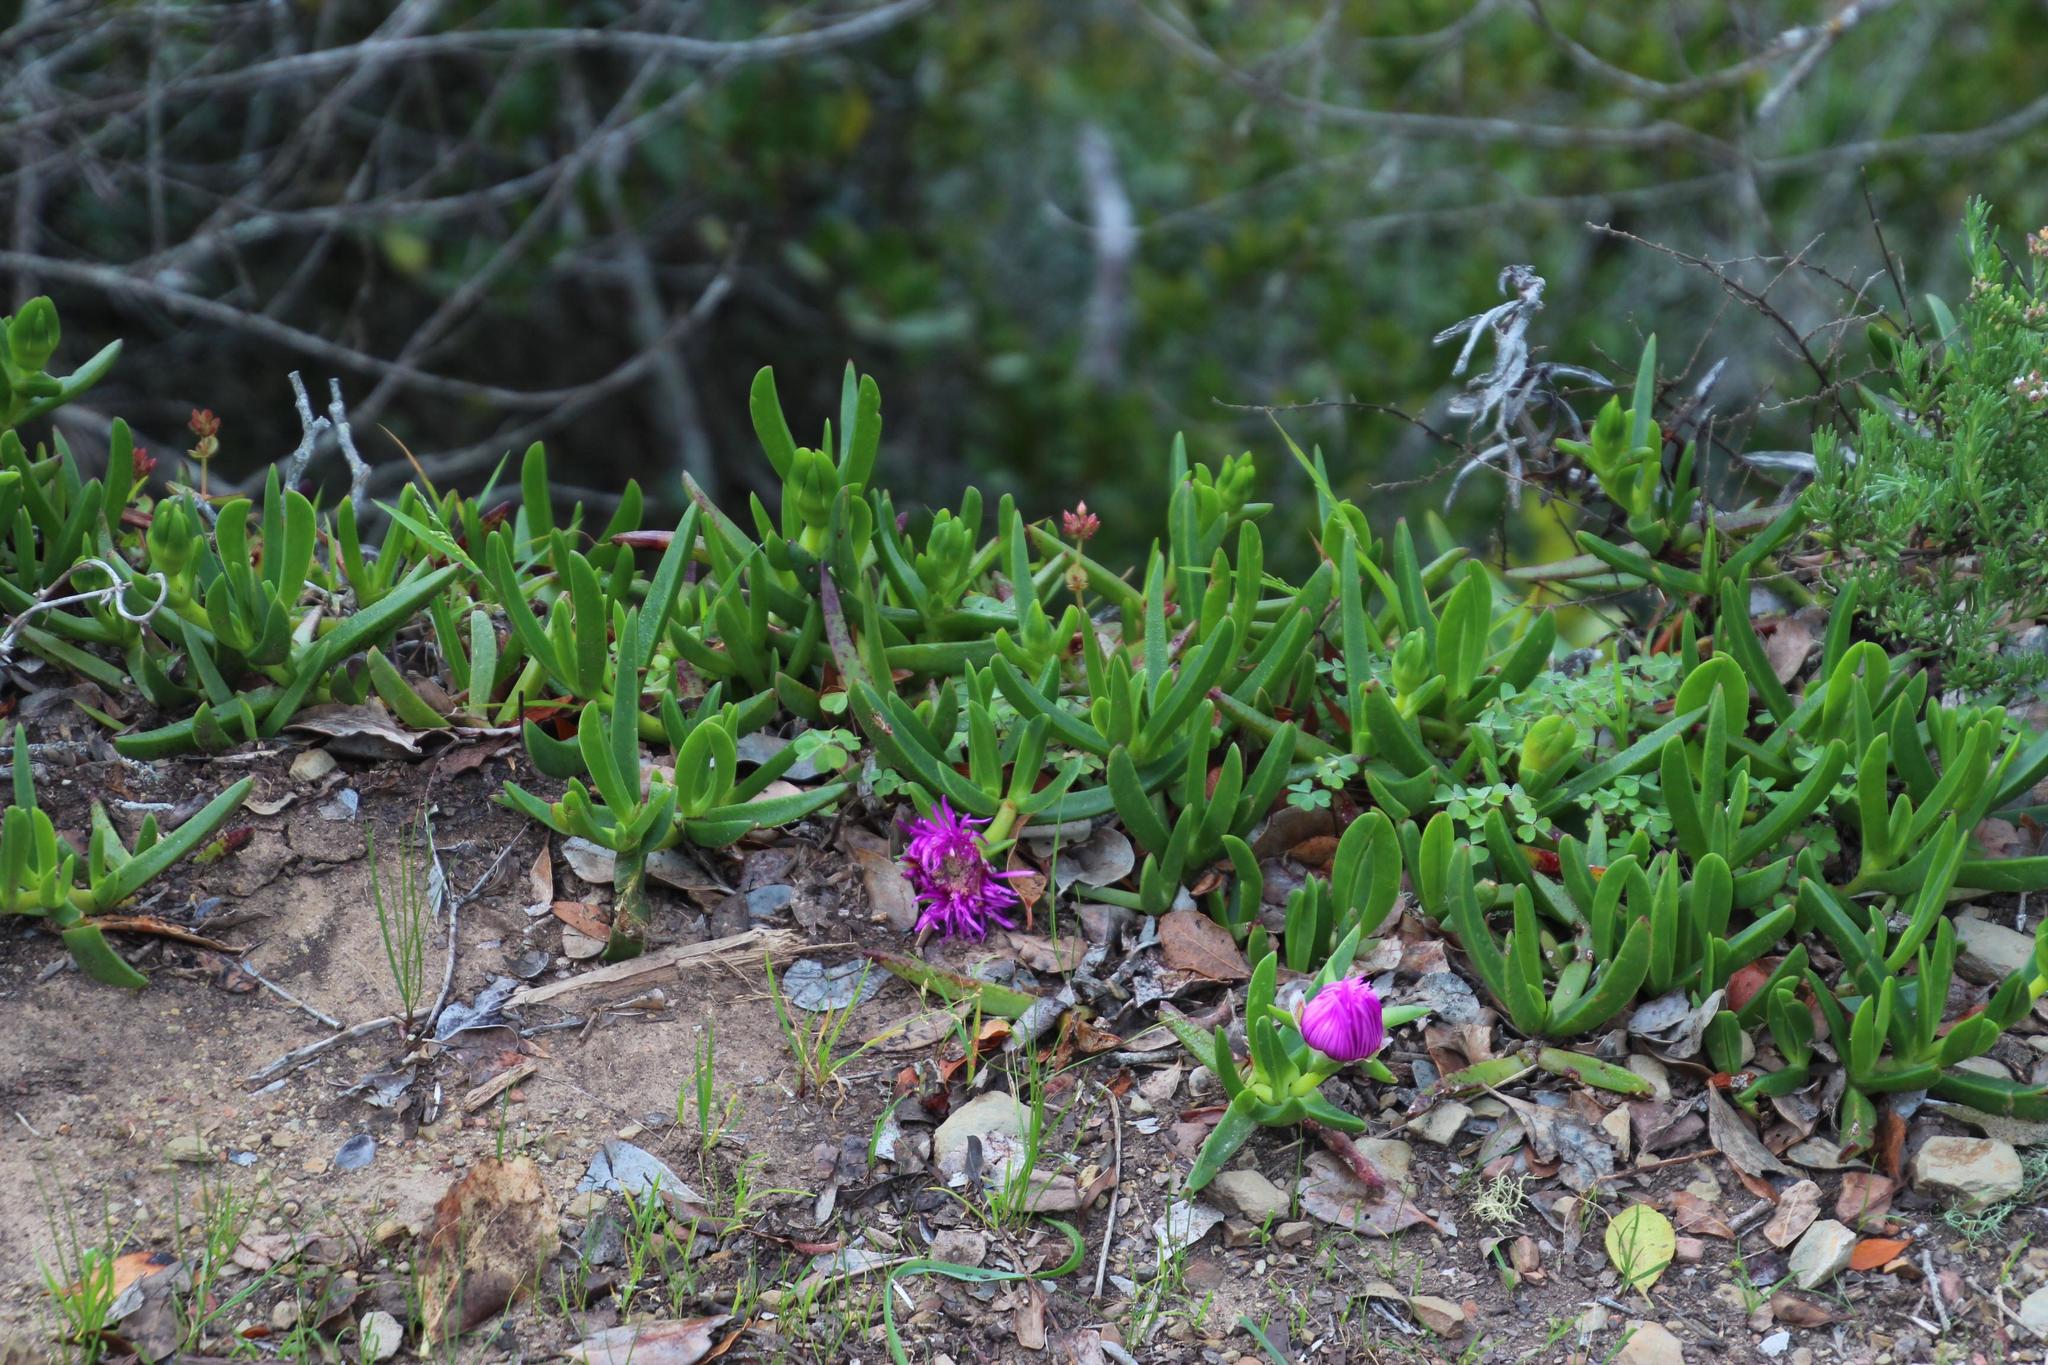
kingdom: Plantae
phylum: Tracheophyta
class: Magnoliopsida
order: Caryophyllales
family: Aizoaceae
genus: Carpobrotus
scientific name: Carpobrotus deliciosus
